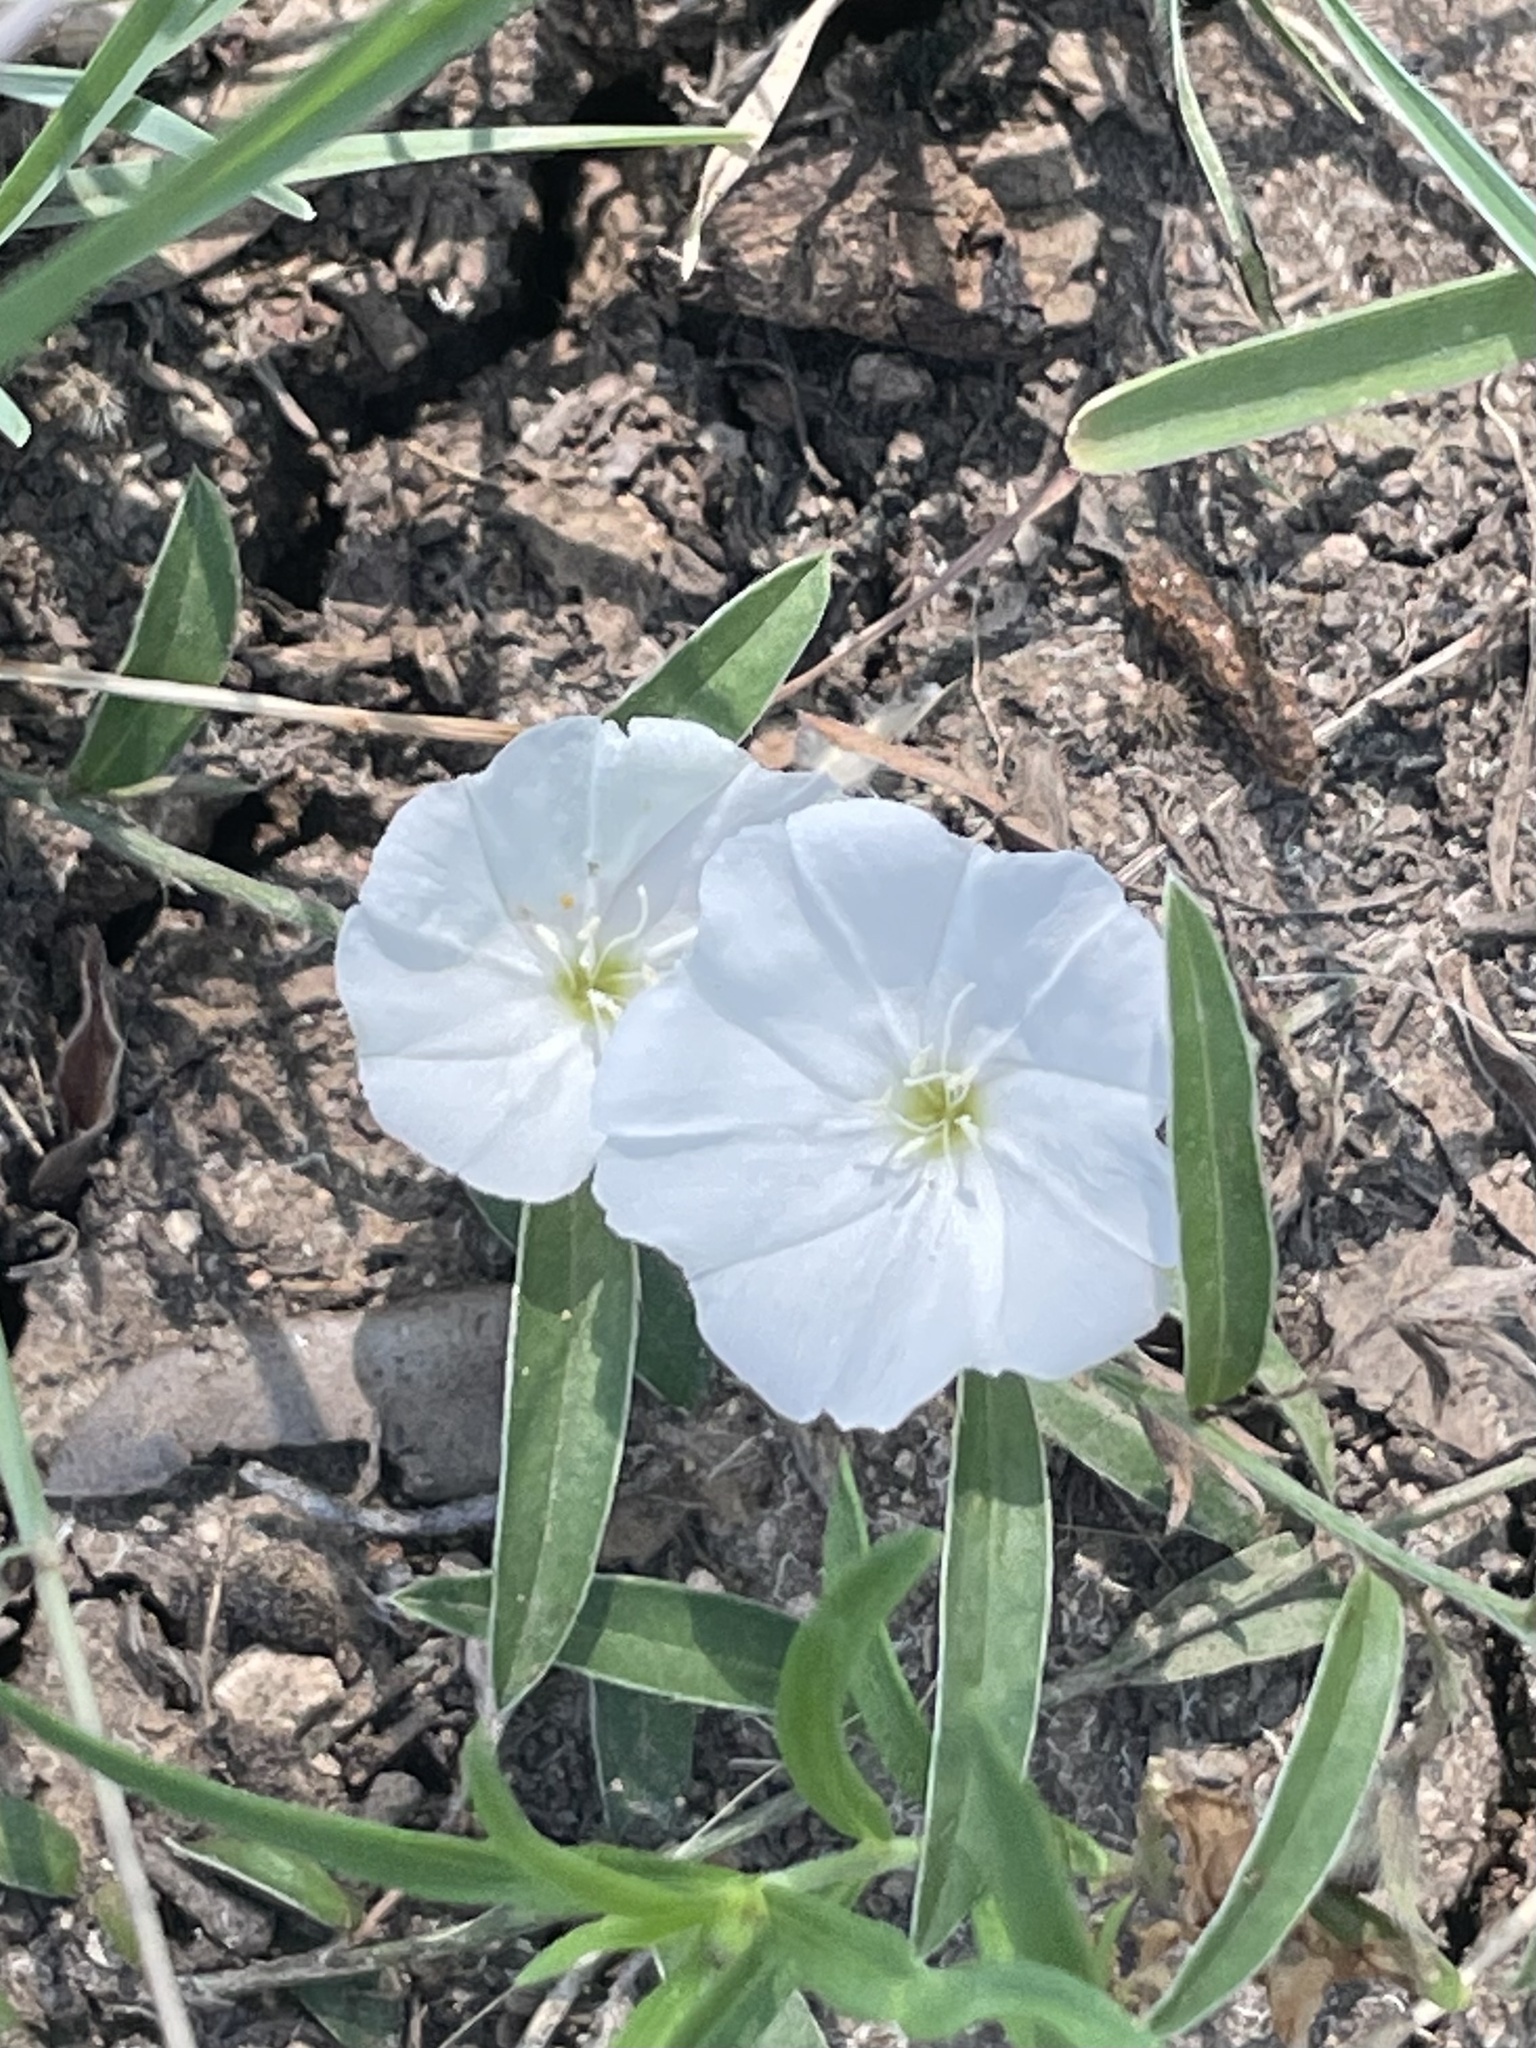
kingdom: Plantae
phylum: Tracheophyta
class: Magnoliopsida
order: Solanales
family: Convolvulaceae
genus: Evolvulus
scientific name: Evolvulus sericeus
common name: Blue dots
